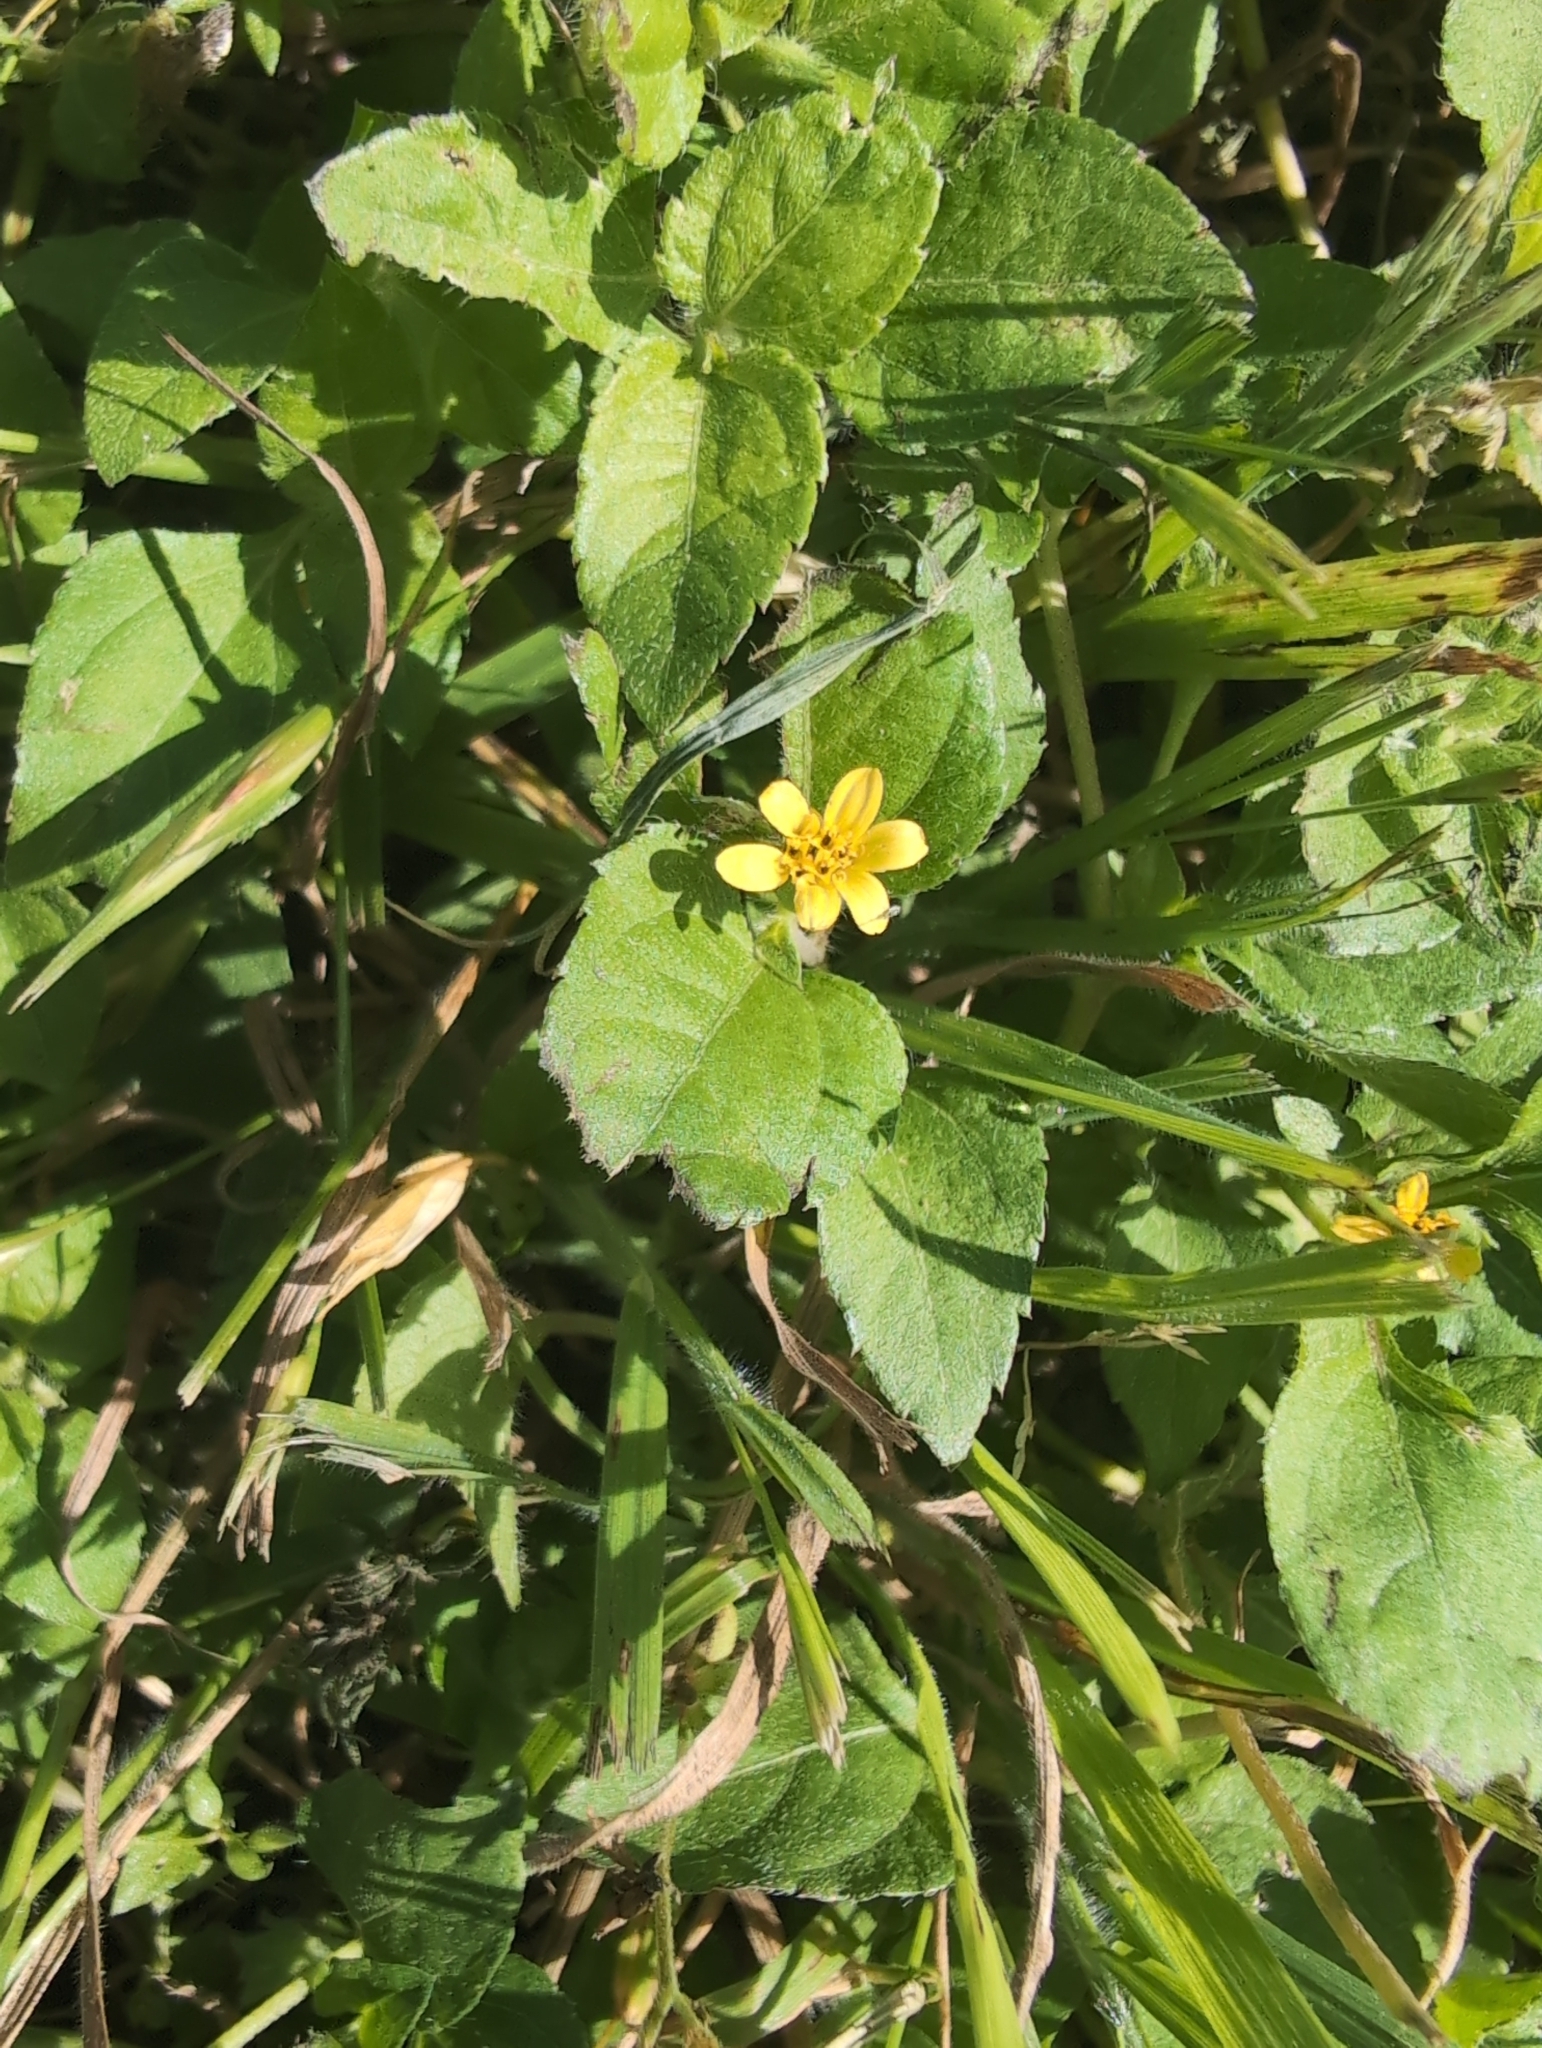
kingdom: Plantae
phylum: Tracheophyta
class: Magnoliopsida
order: Asterales
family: Asteraceae
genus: Calyptocarpus
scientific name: Calyptocarpus vialis
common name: Straggler daisy
